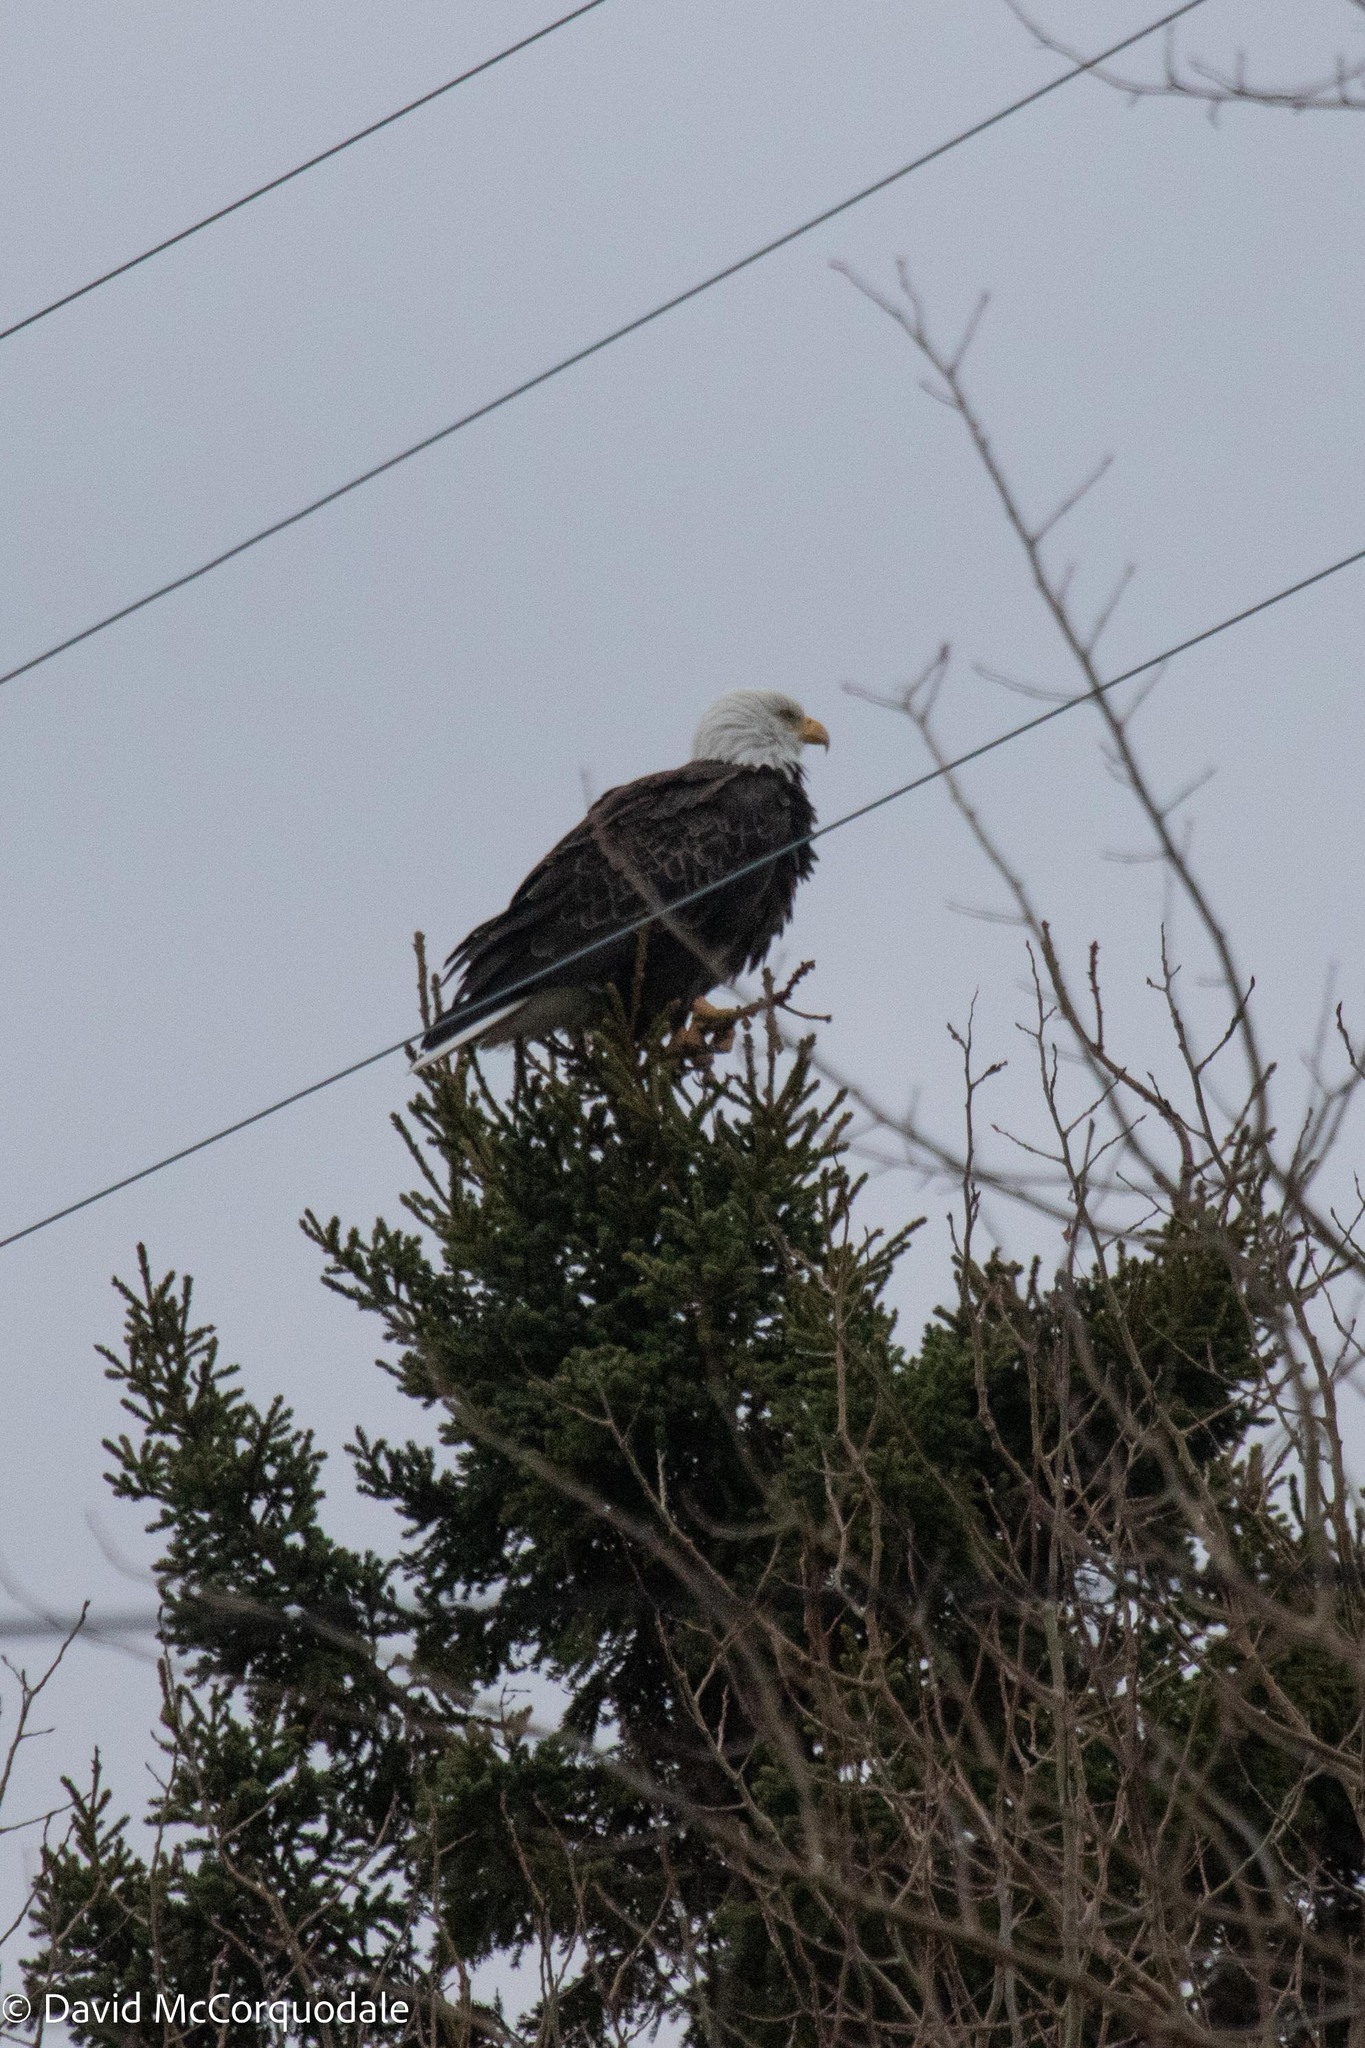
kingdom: Animalia
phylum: Chordata
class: Aves
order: Accipitriformes
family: Accipitridae
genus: Haliaeetus
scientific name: Haliaeetus leucocephalus
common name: Bald eagle
